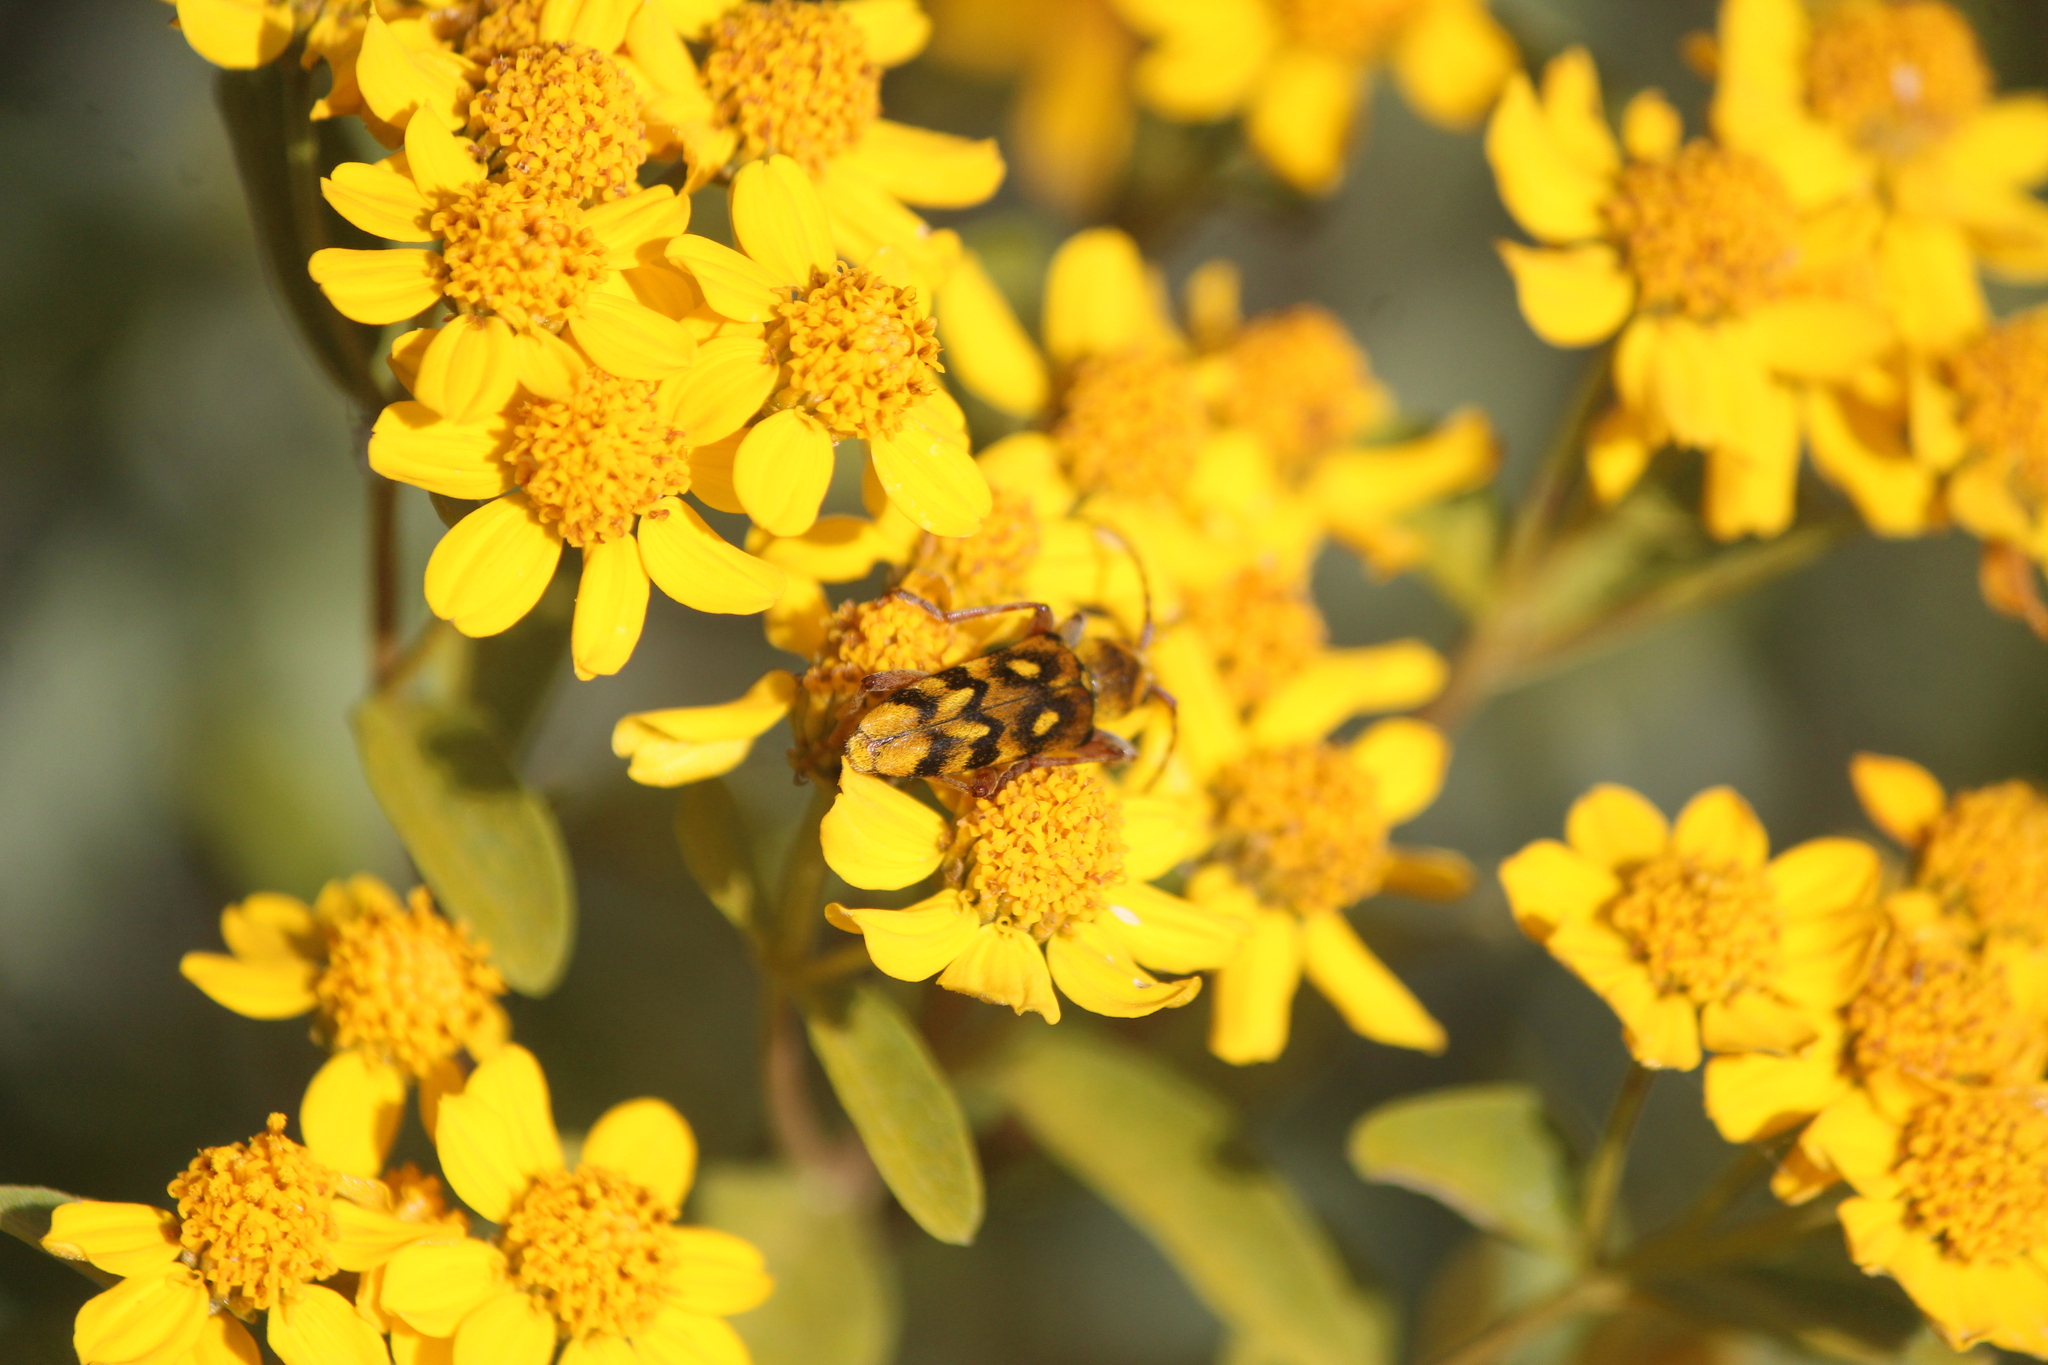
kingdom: Animalia
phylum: Arthropoda
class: Insecta
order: Coleoptera
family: Cerambycidae
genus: Ochraethes
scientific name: Ochraethes sommeri
